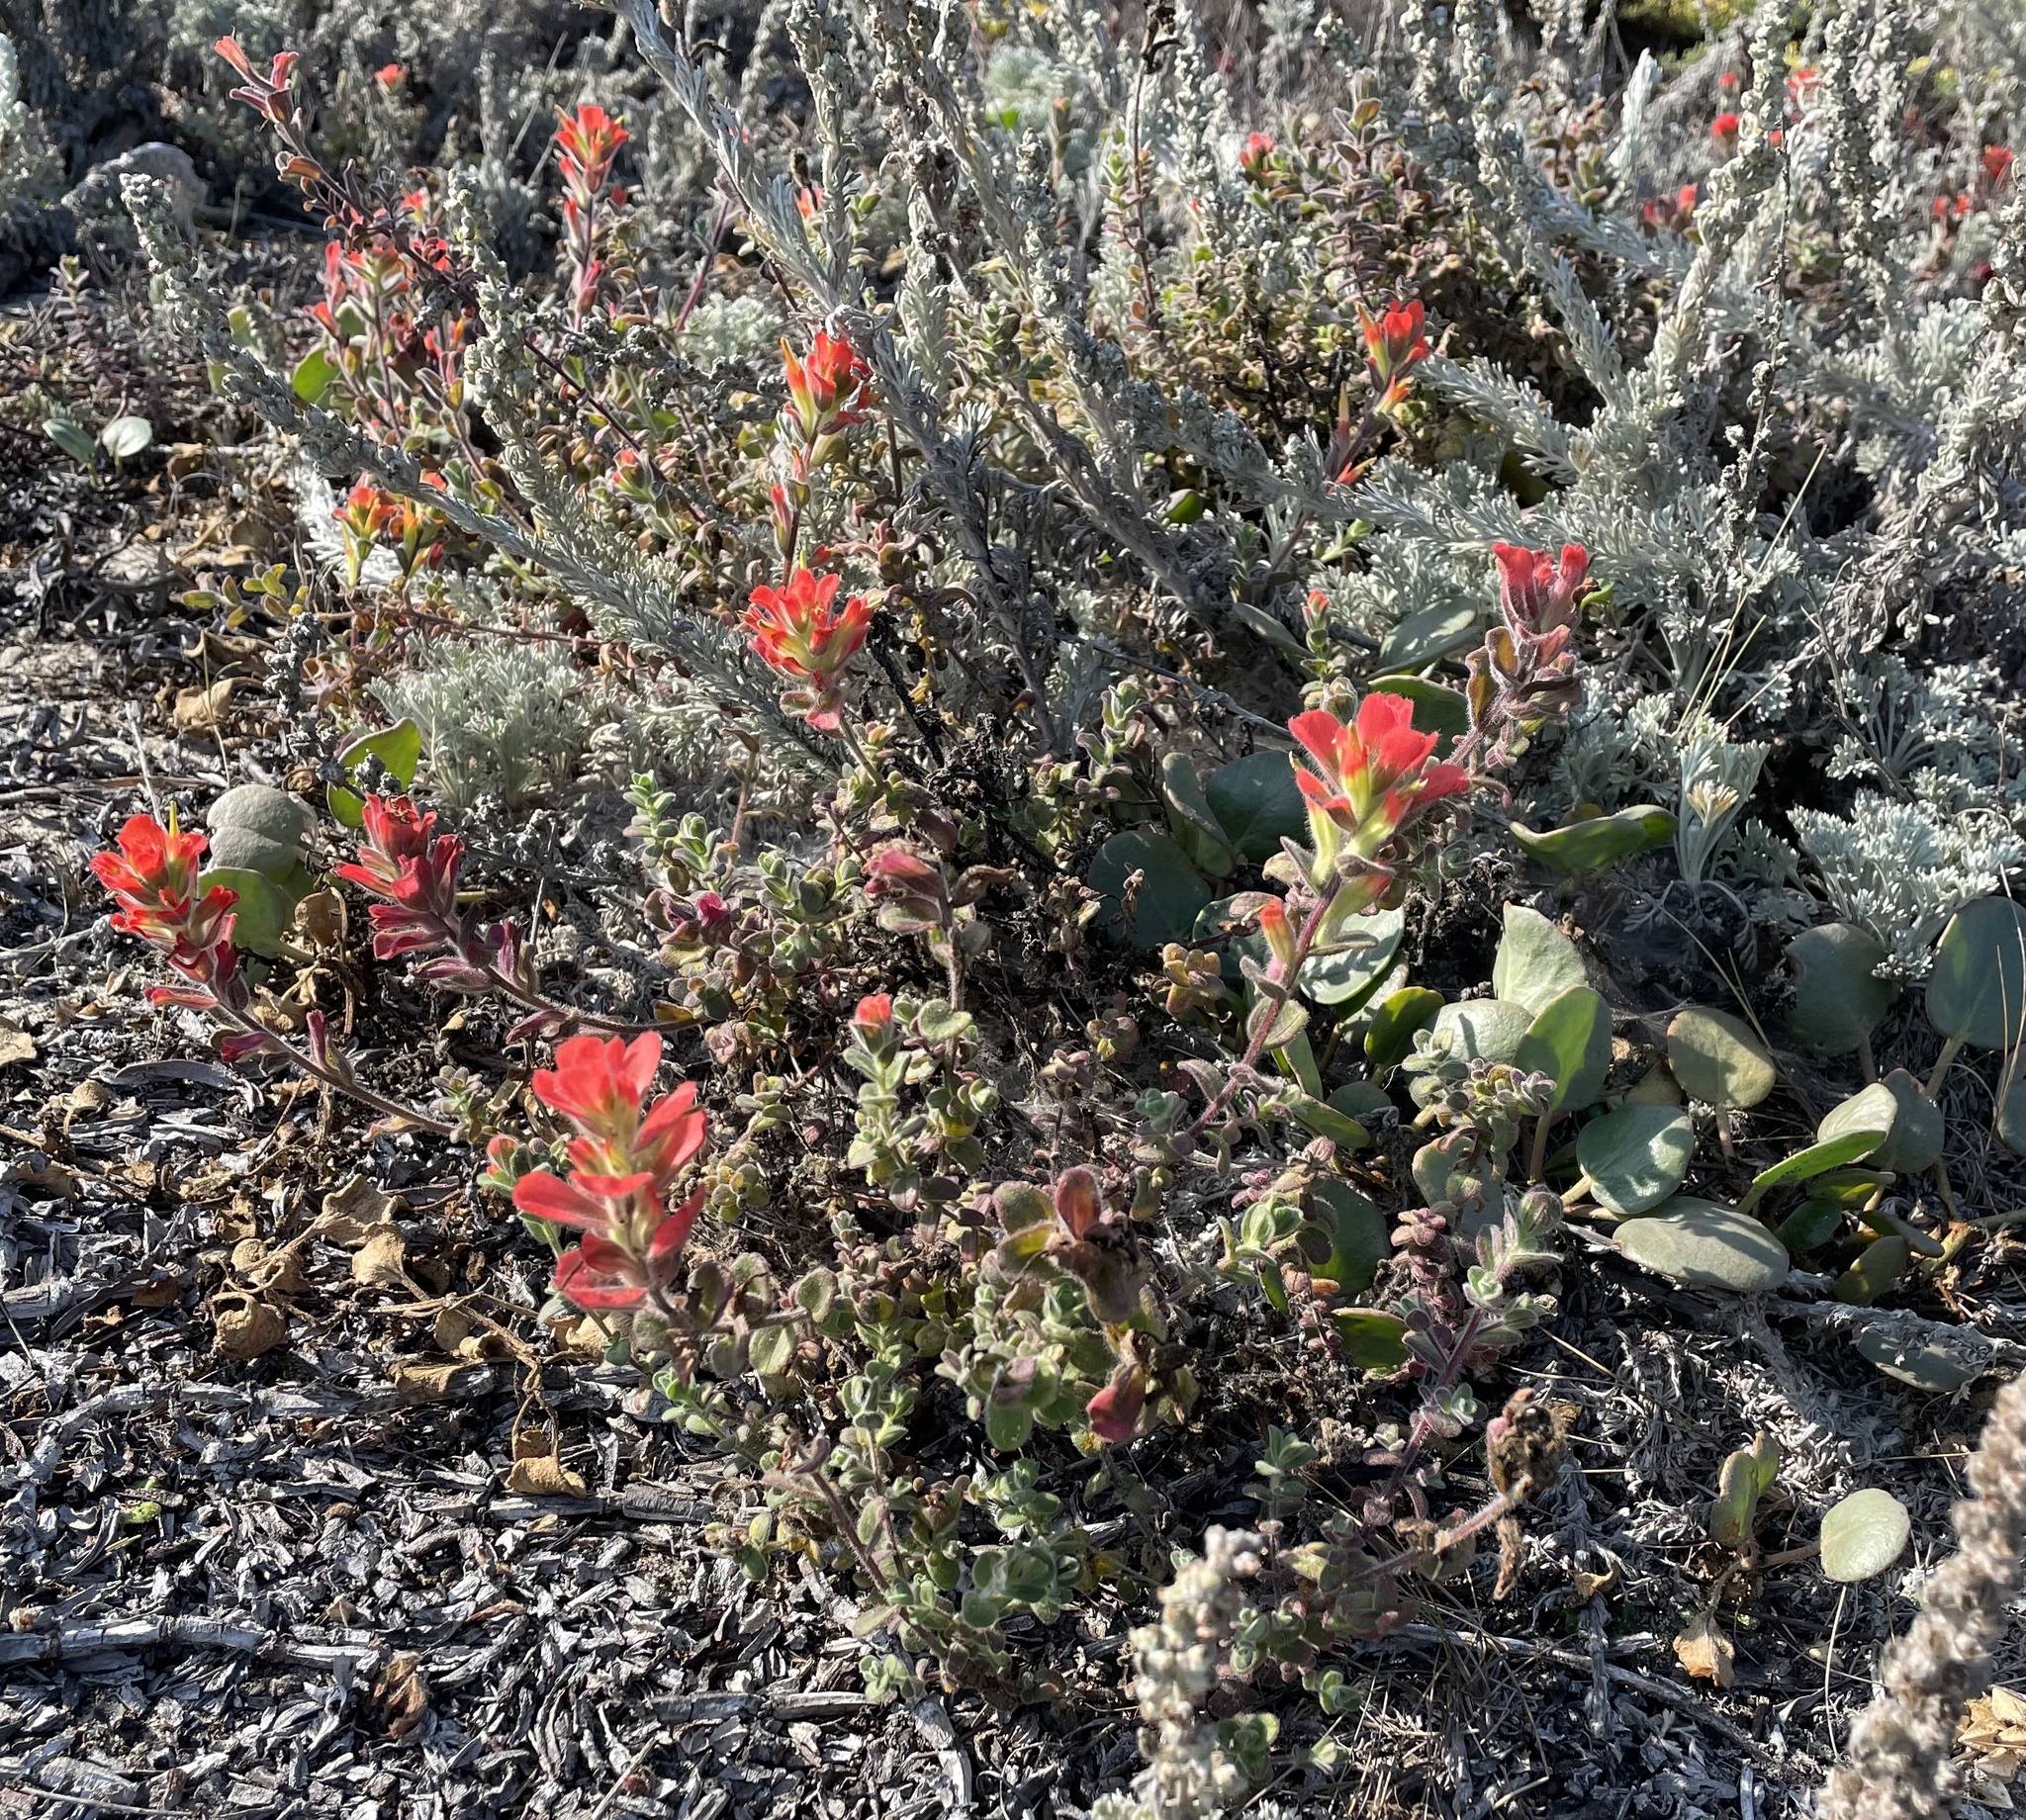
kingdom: Plantae
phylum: Tracheophyta
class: Magnoliopsida
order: Lamiales
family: Orobanchaceae
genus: Castilleja
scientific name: Castilleja latifolia
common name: Monterey indian paintbrush
